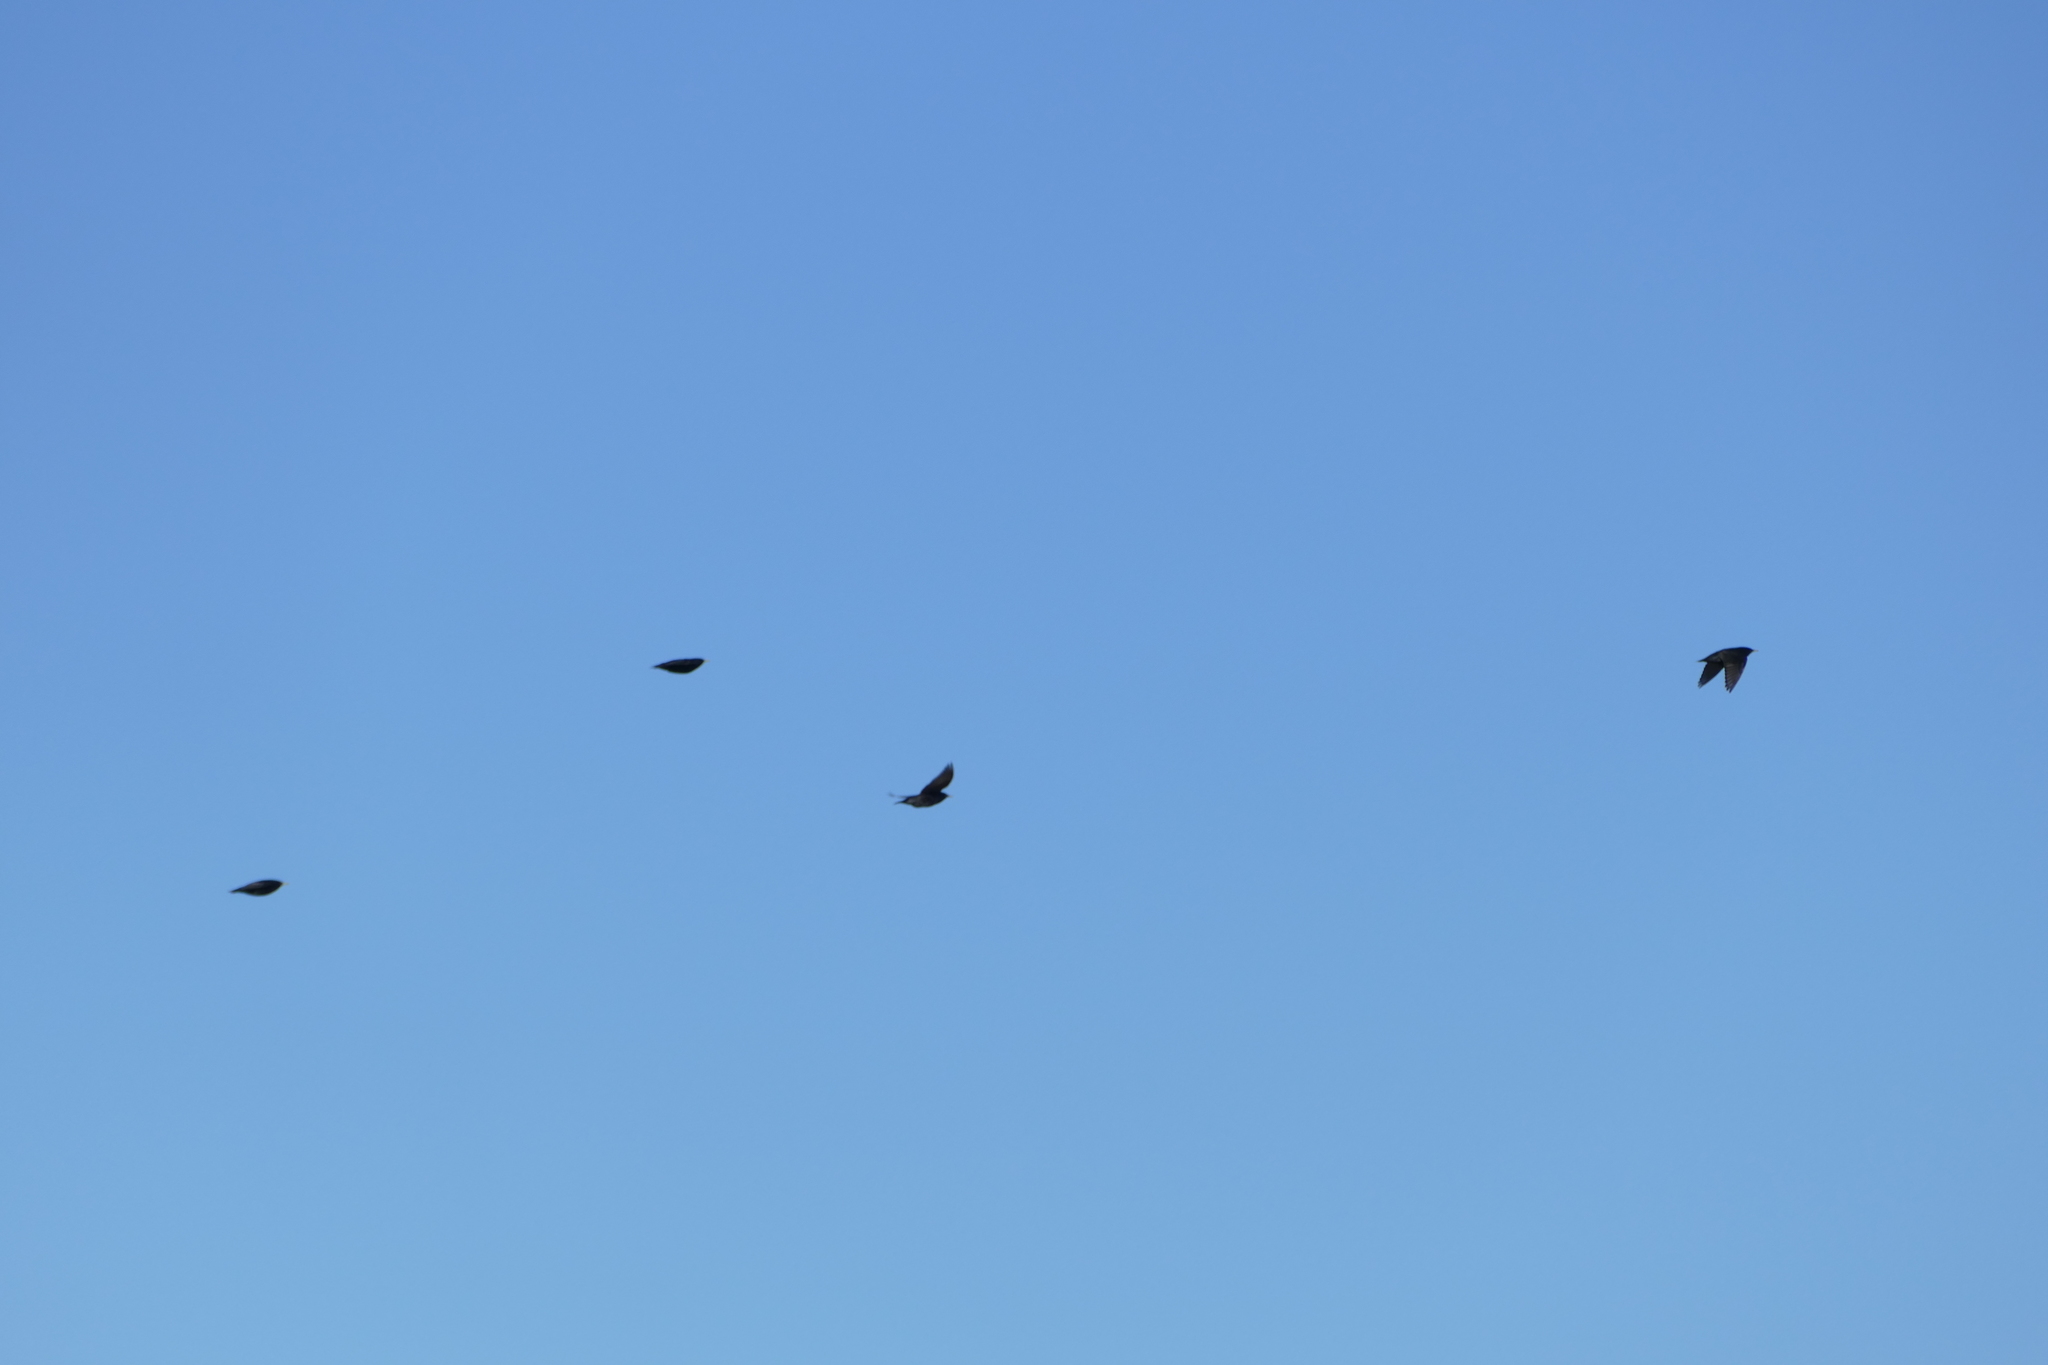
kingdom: Animalia
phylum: Chordata
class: Aves
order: Passeriformes
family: Corvidae
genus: Coloeus
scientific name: Coloeus monedula
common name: Western jackdaw
